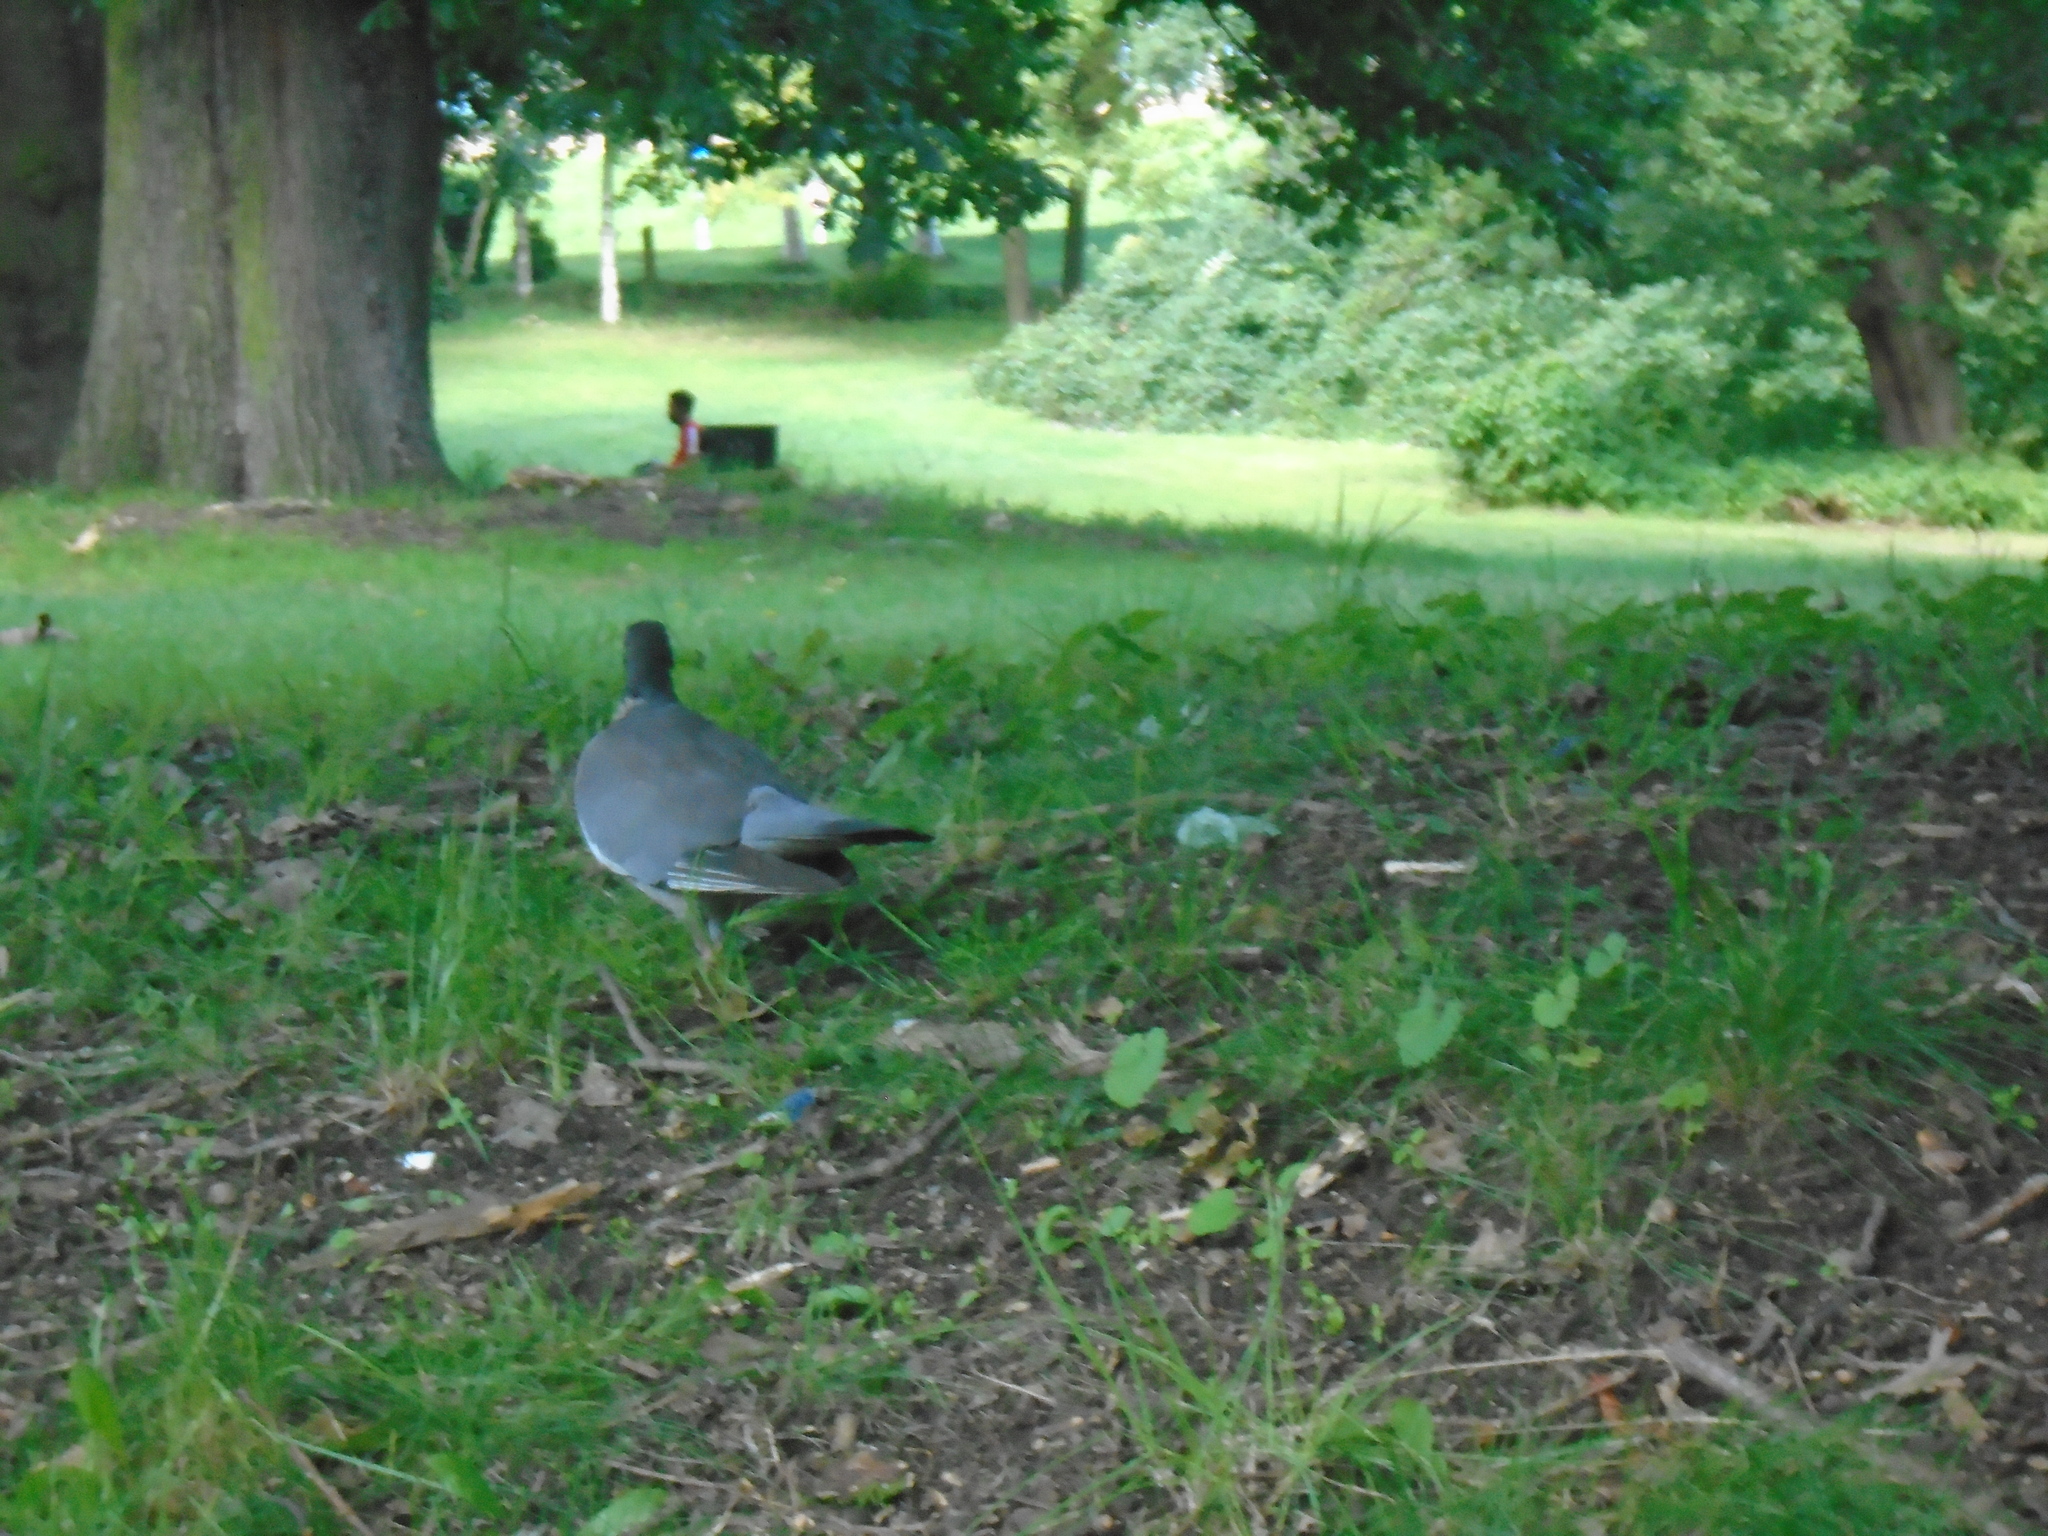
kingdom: Animalia
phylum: Chordata
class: Aves
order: Columbiformes
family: Columbidae
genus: Columba
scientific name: Columba palumbus
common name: Common wood pigeon
